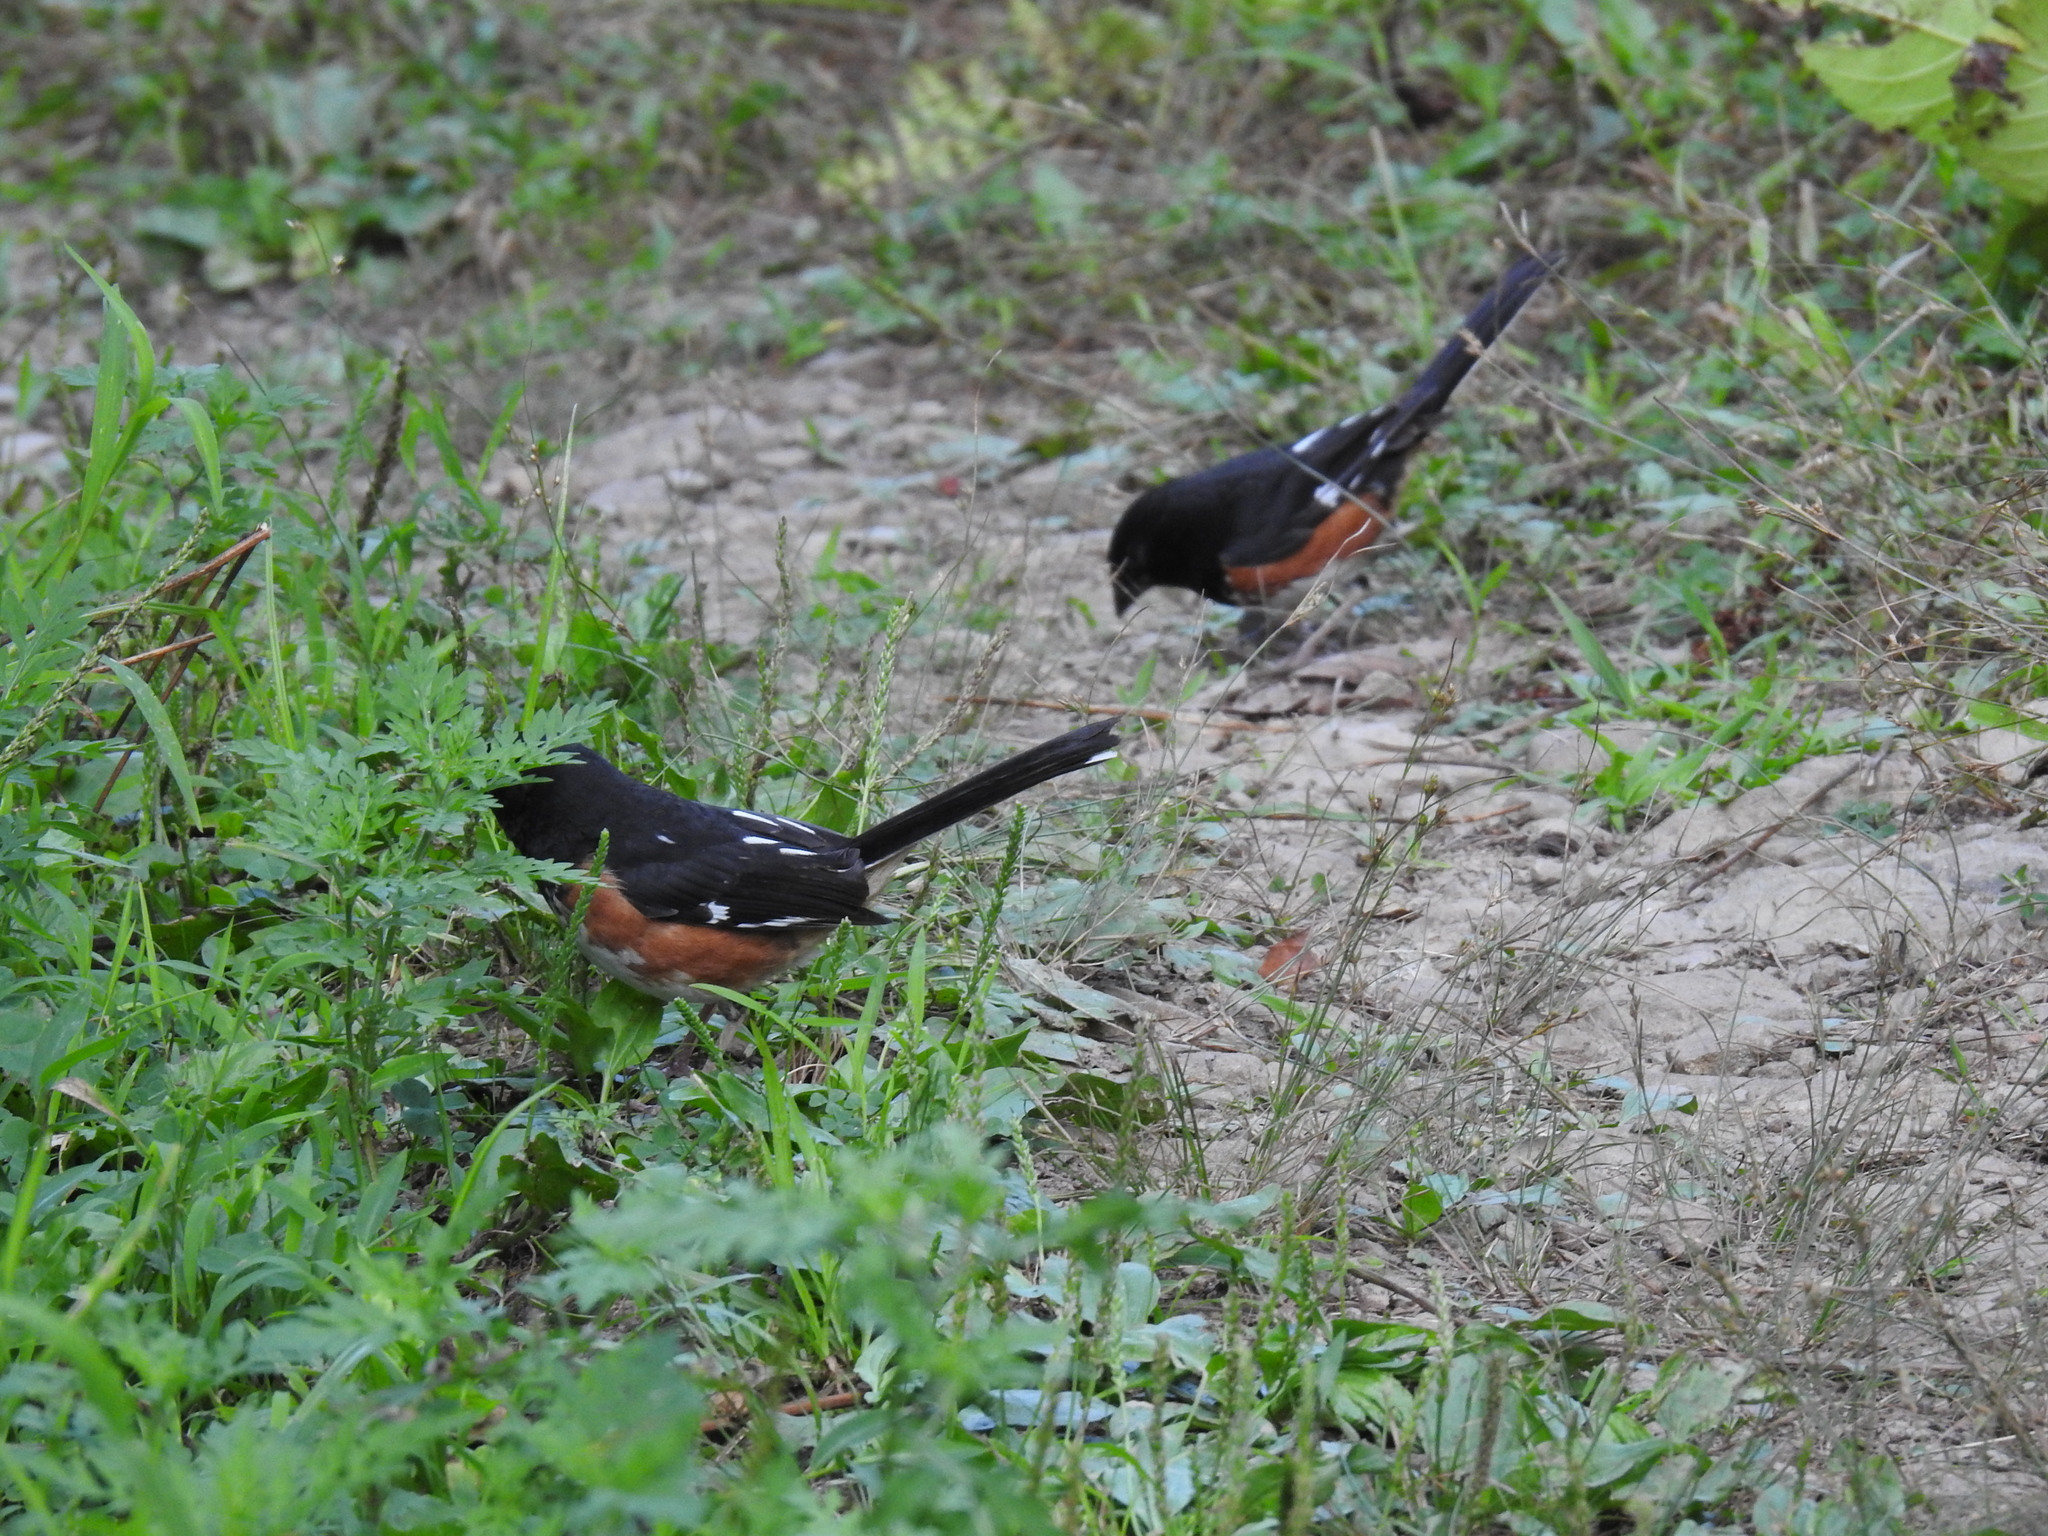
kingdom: Animalia
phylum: Chordata
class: Aves
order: Passeriformes
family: Passerellidae
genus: Pipilo
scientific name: Pipilo erythrophthalmus
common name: Eastern towhee
